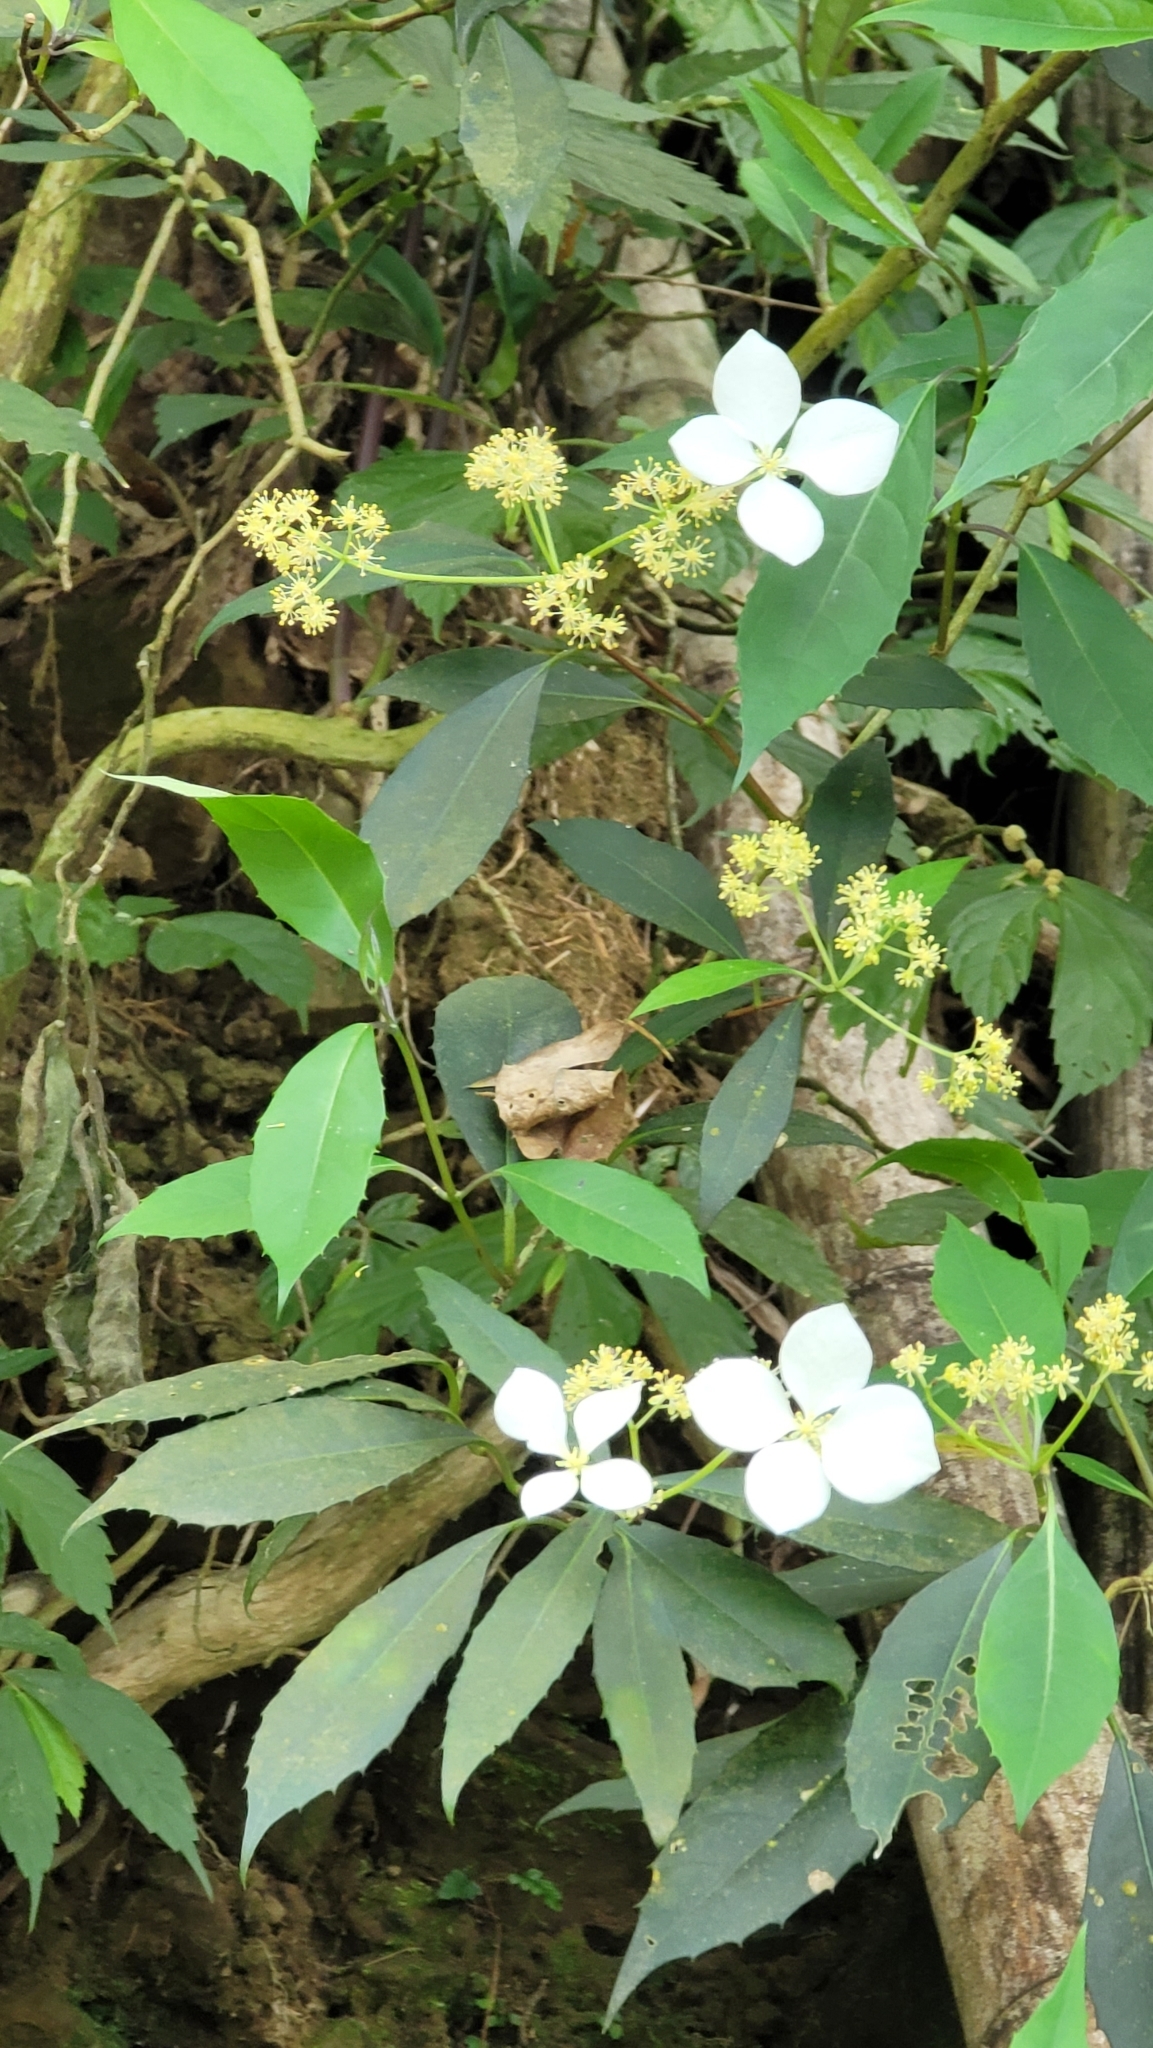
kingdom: Plantae
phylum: Tracheophyta
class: Magnoliopsida
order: Cornales
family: Hydrangeaceae
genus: Hydrangea
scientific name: Hydrangea chinensis
